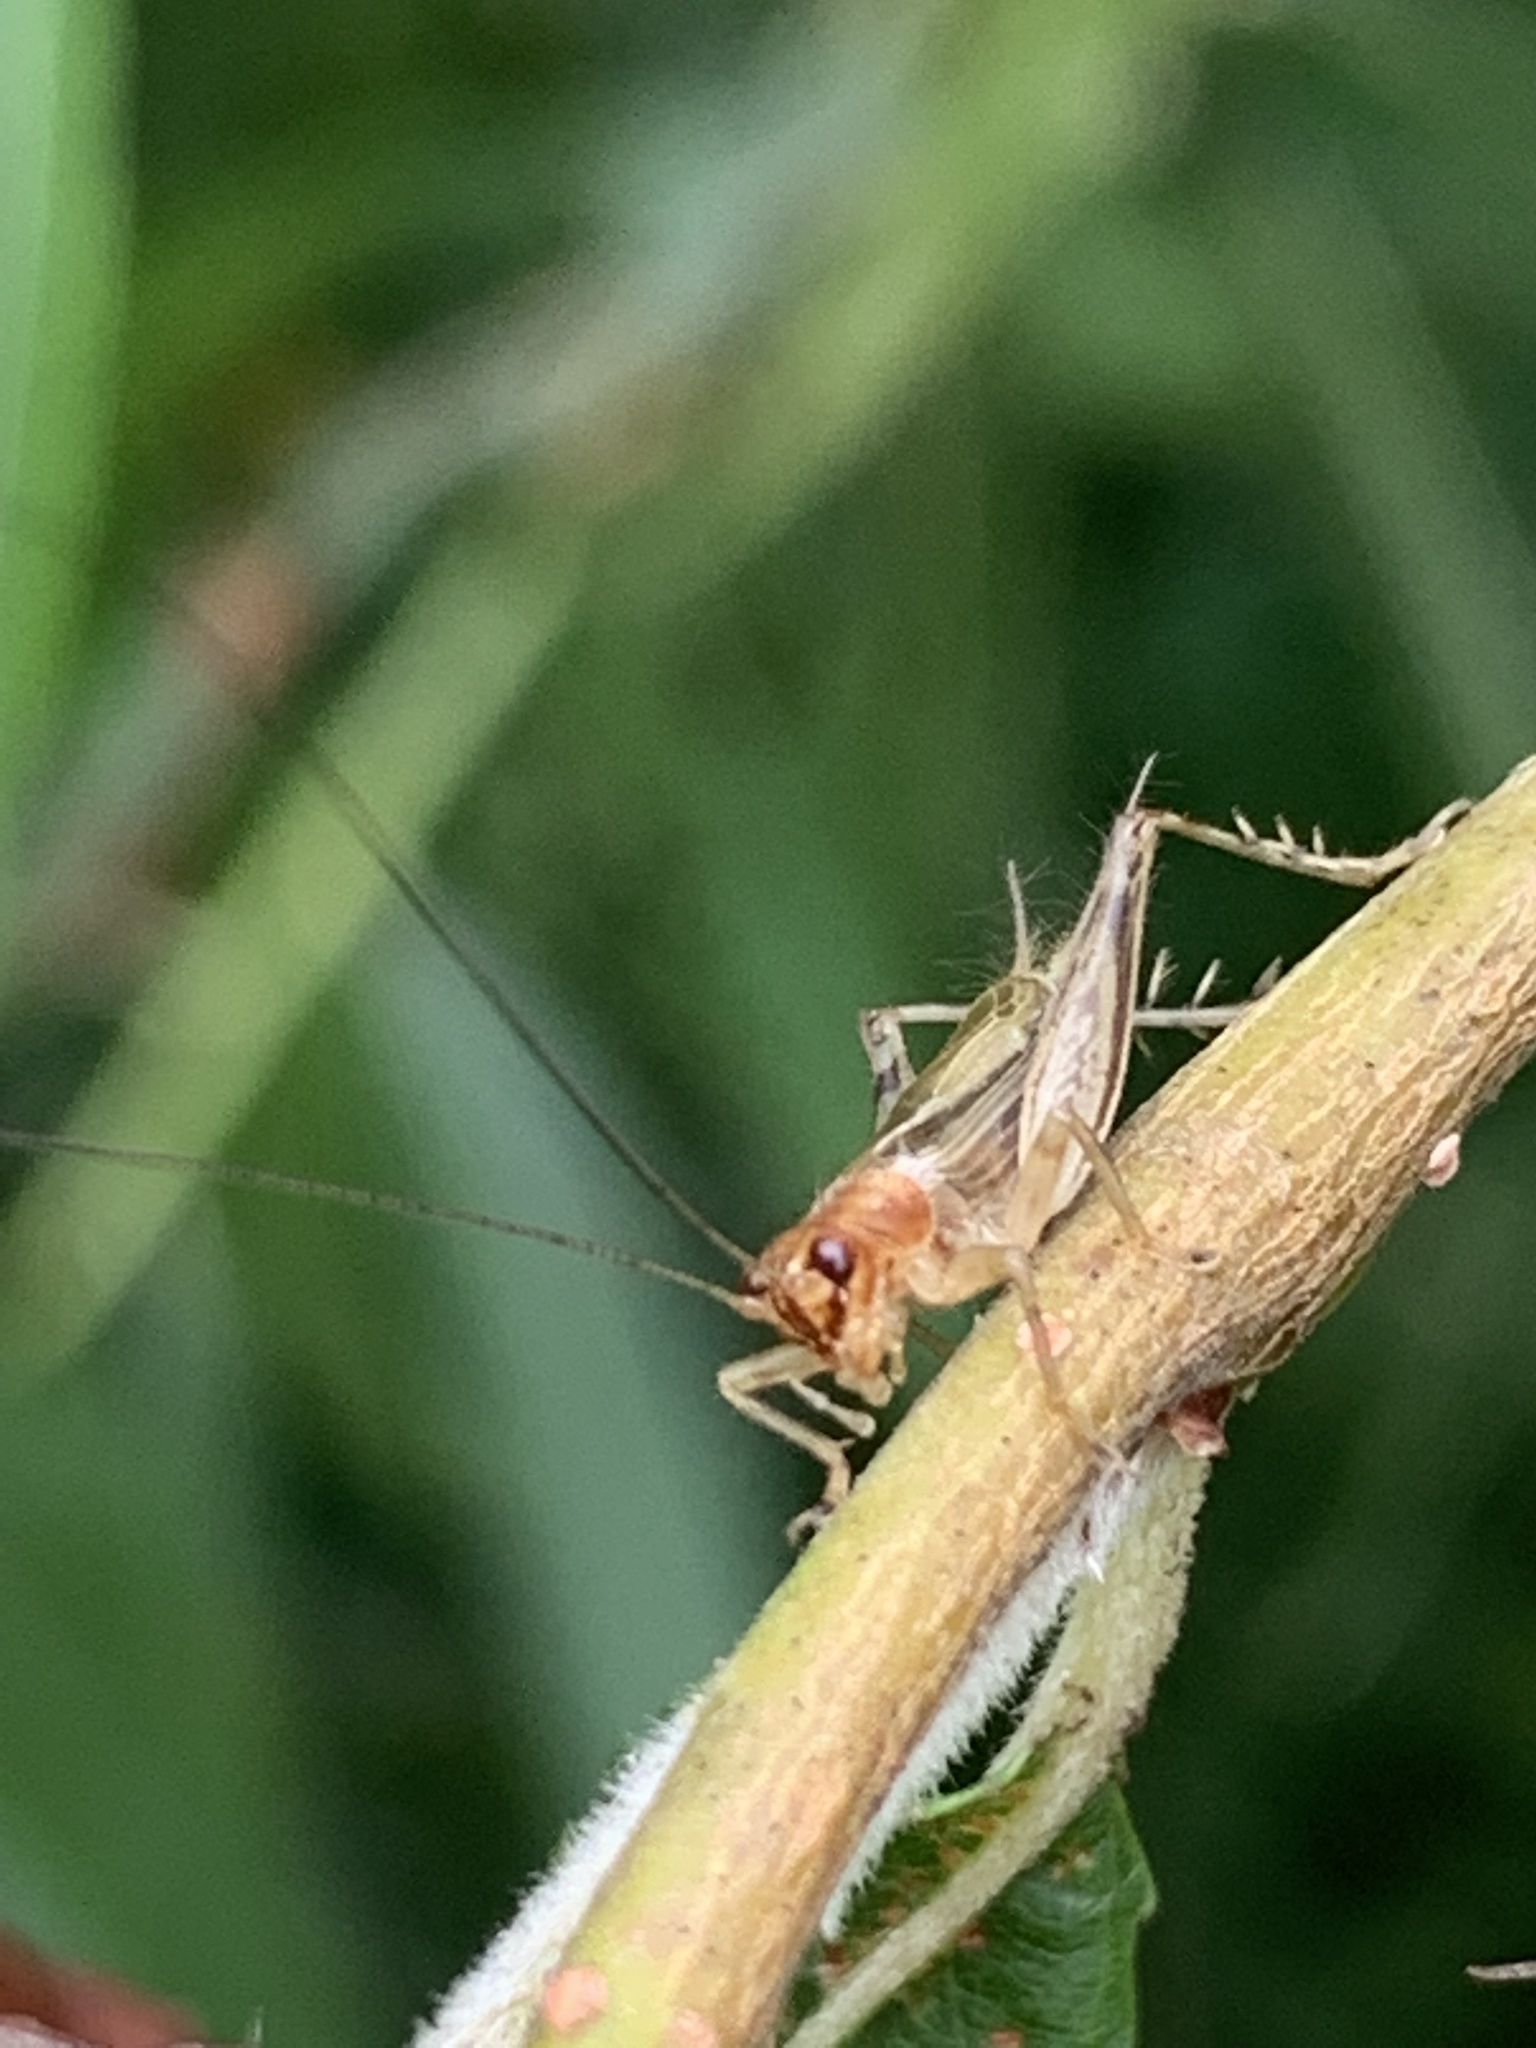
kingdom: Animalia
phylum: Arthropoda
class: Insecta
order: Orthoptera
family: Trigonidiidae
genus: Anaxipha
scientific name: Anaxipha exigua
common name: Say's bush cricket
